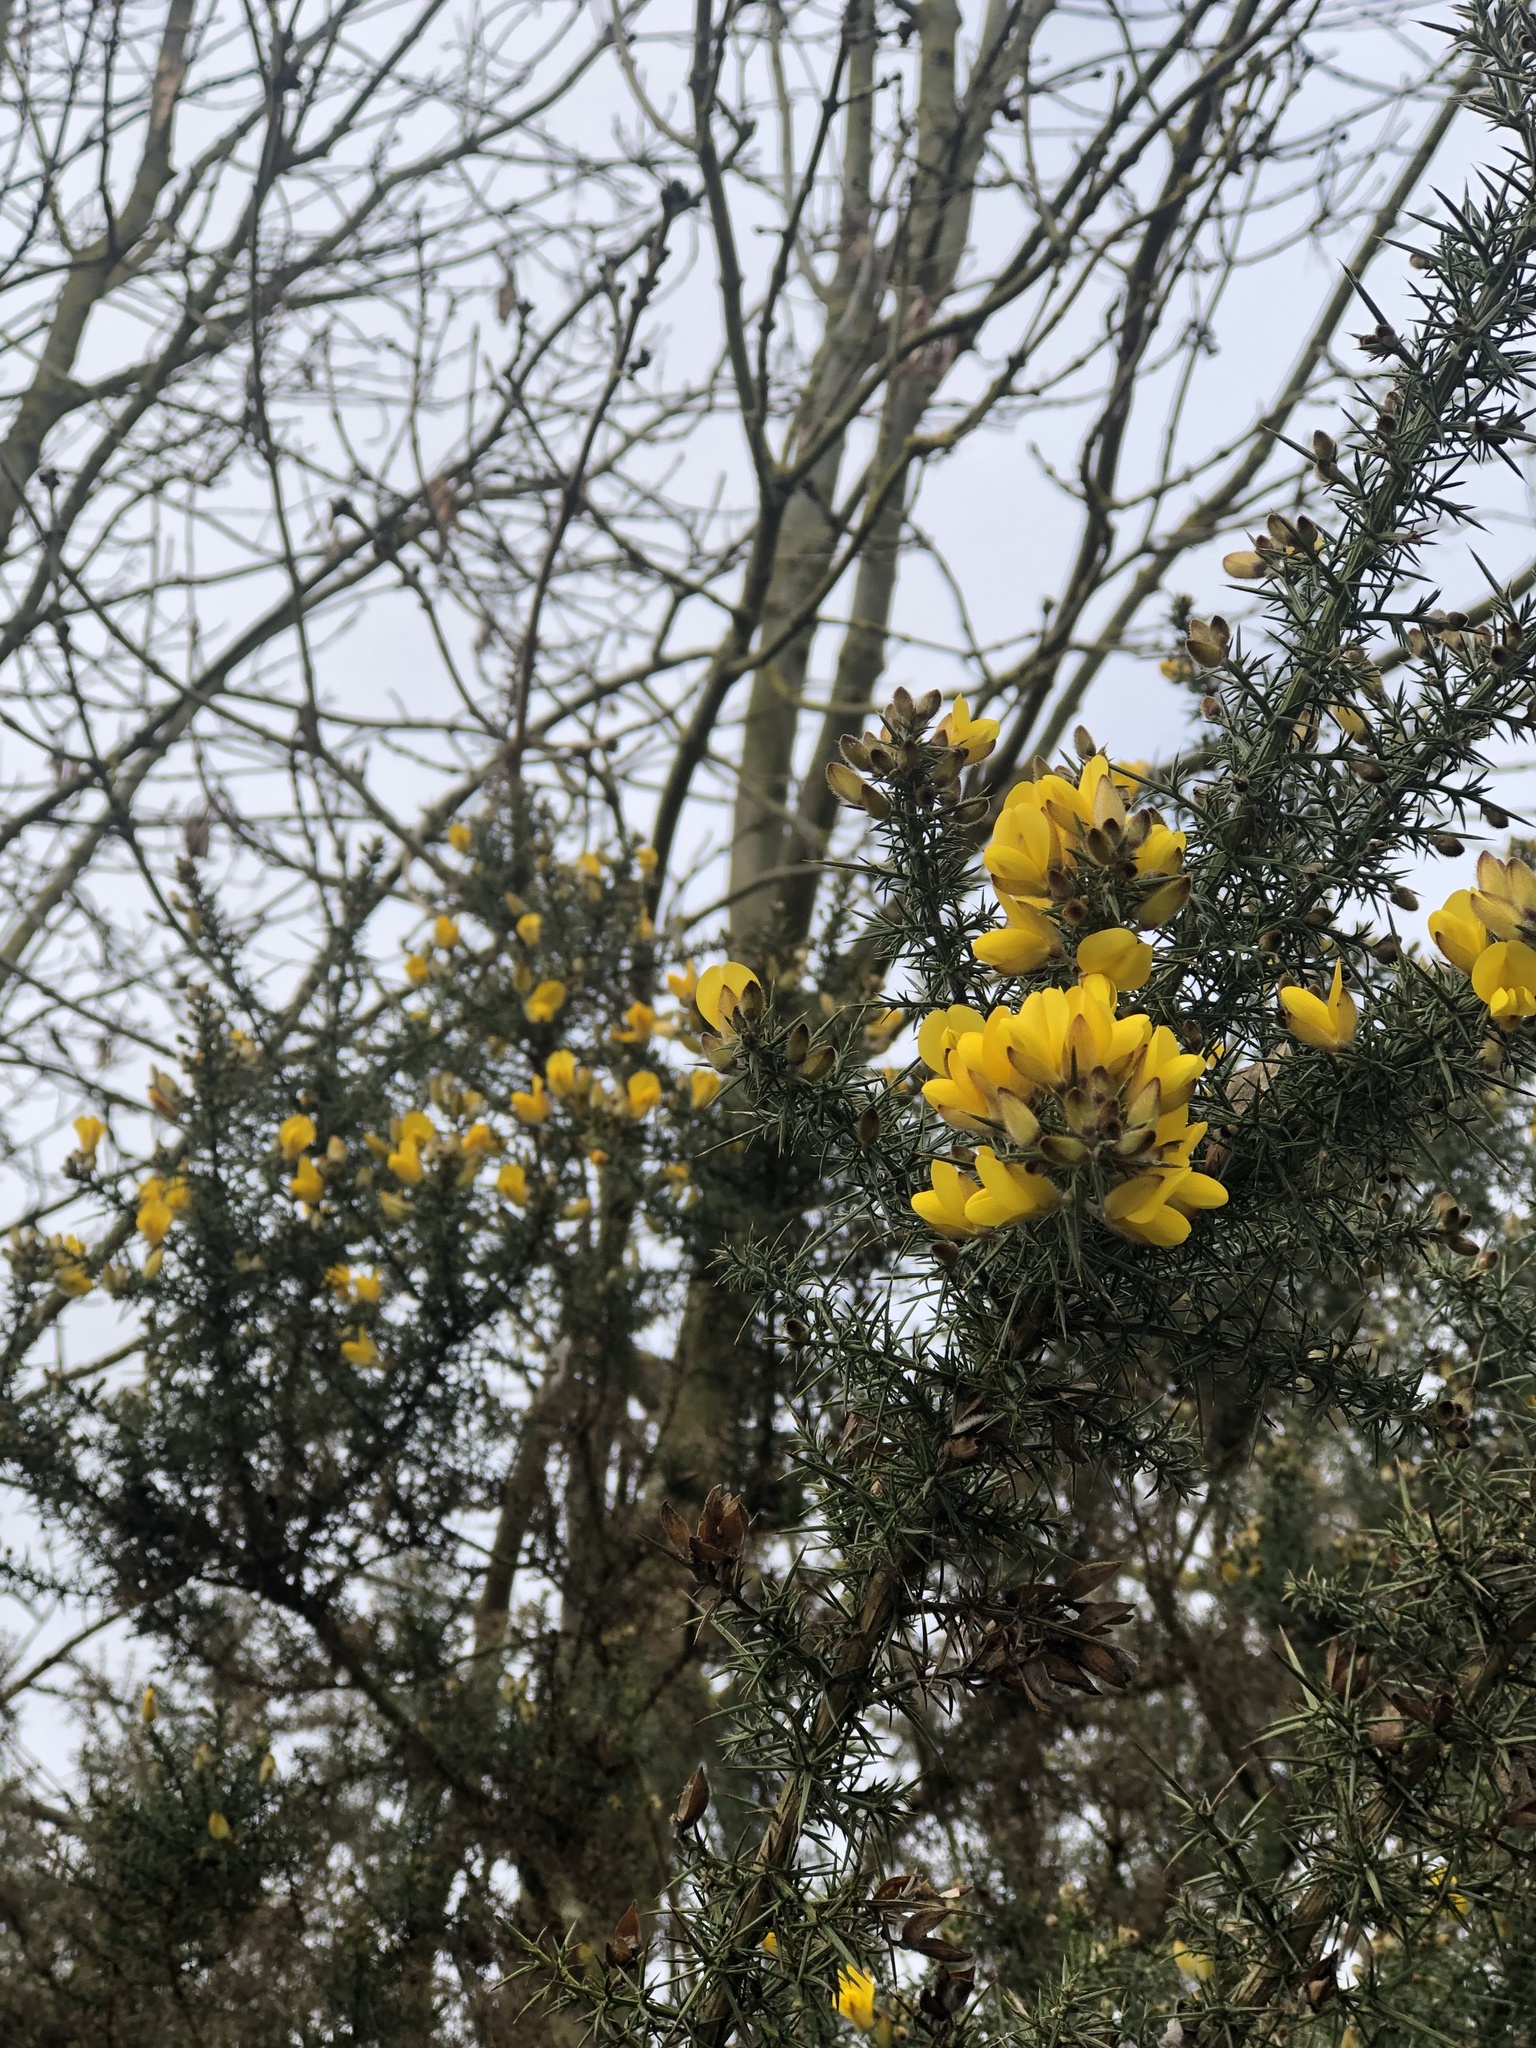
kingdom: Plantae
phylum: Tracheophyta
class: Magnoliopsida
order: Fabales
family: Fabaceae
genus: Ulex
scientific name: Ulex europaeus
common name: Common gorse
